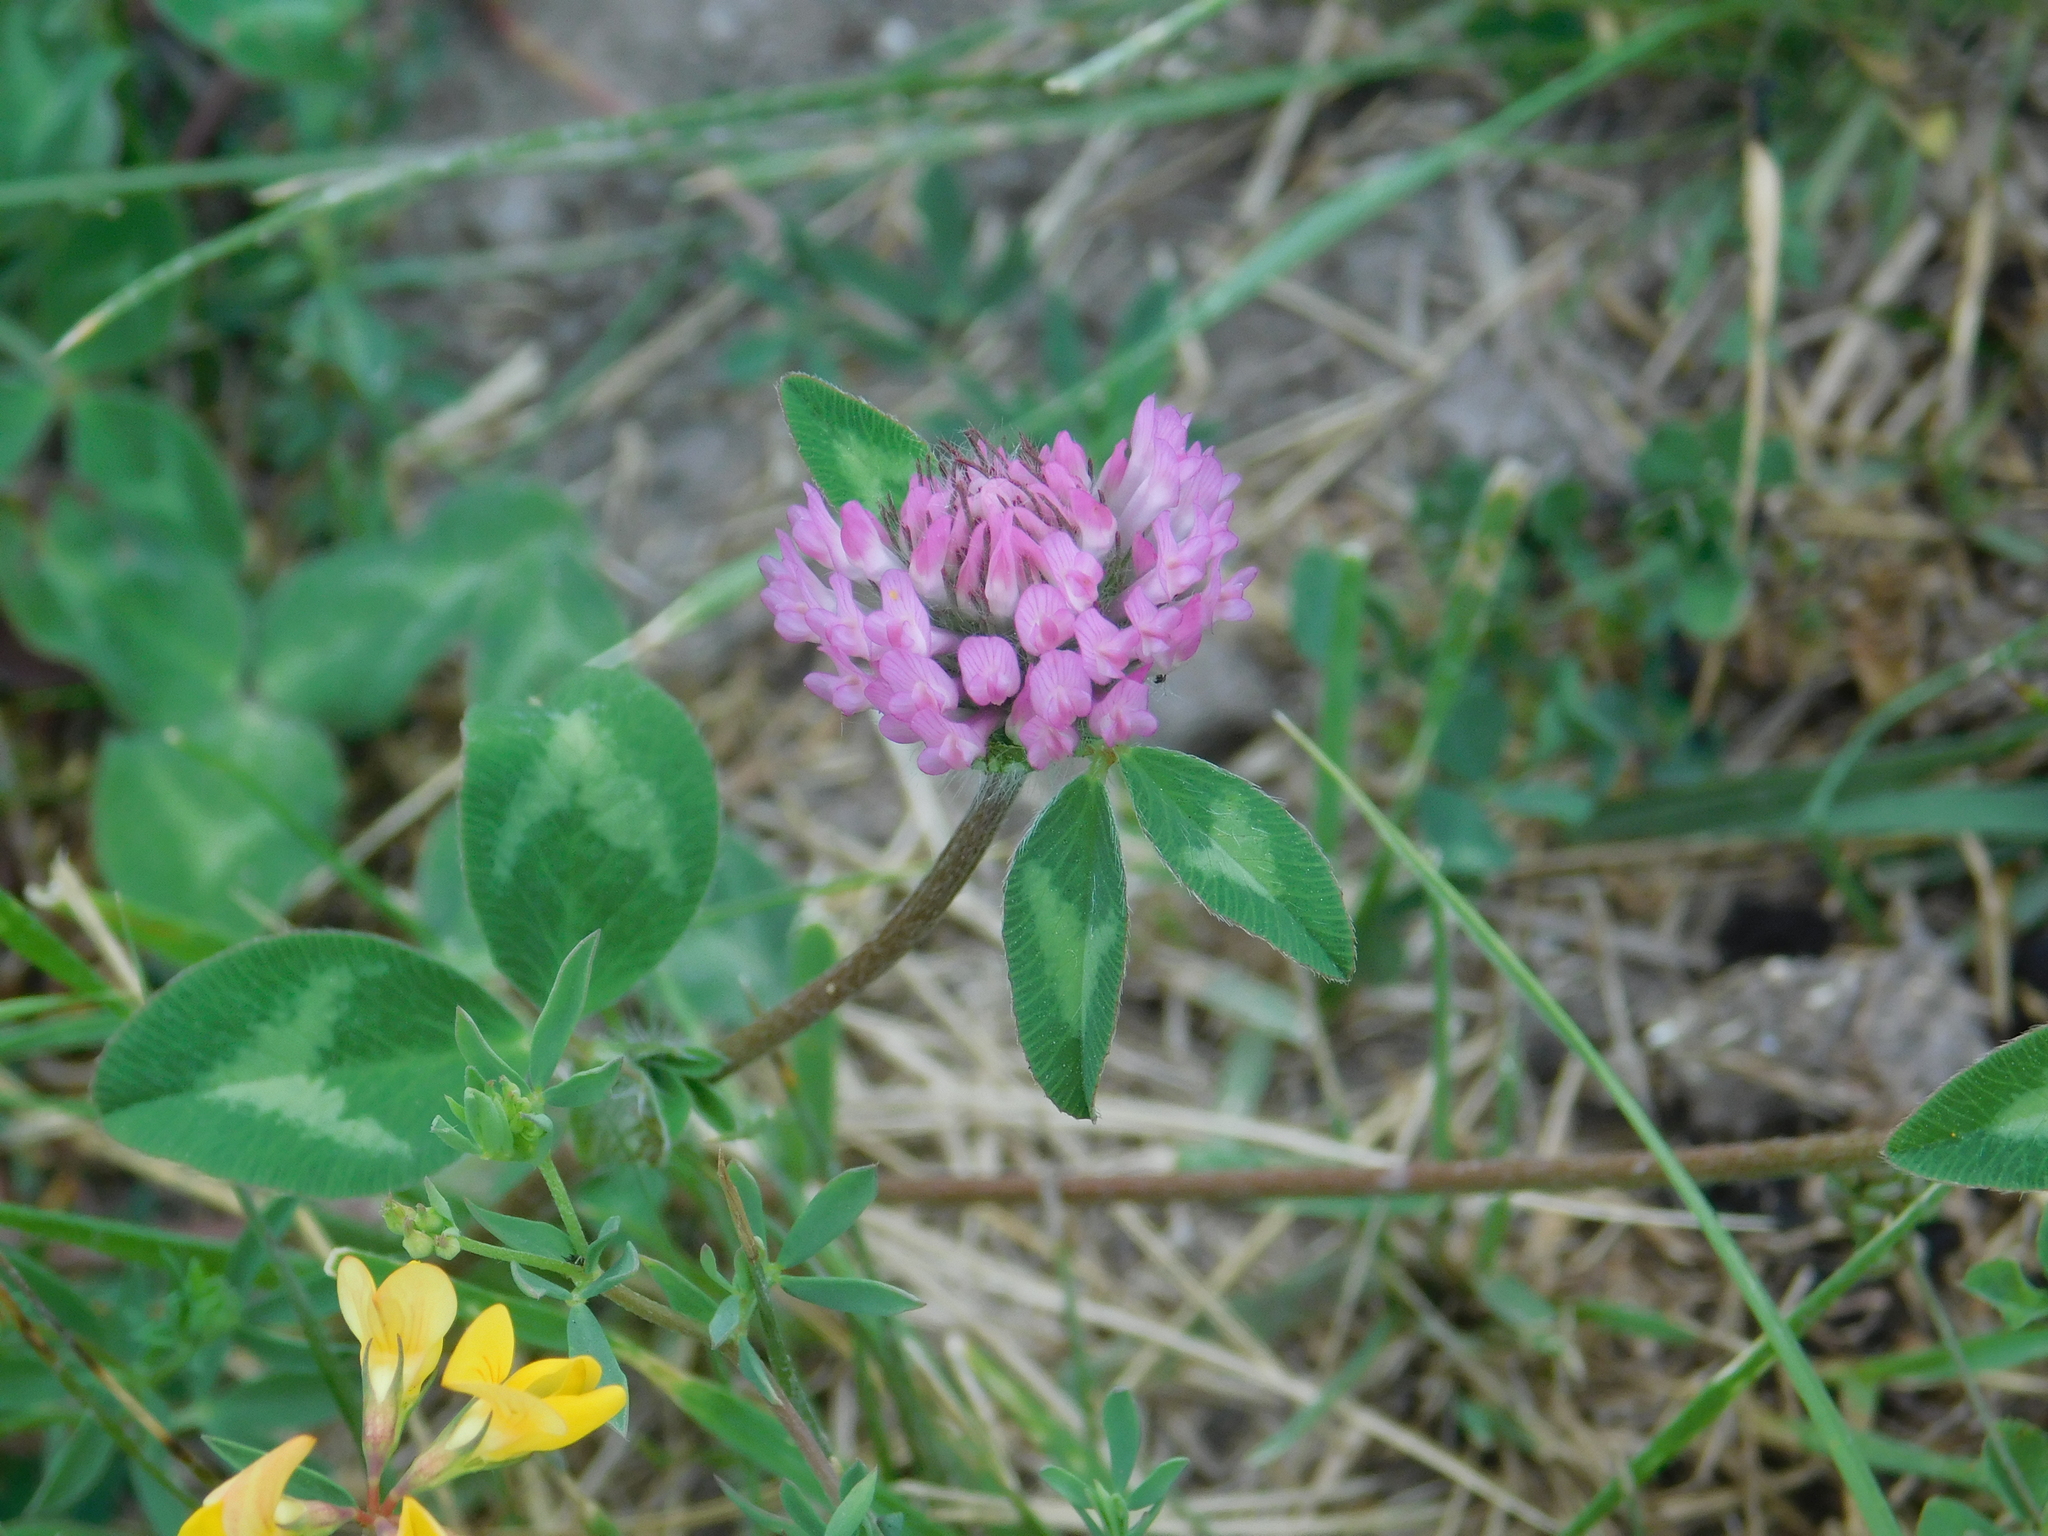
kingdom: Plantae
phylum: Tracheophyta
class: Magnoliopsida
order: Fabales
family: Fabaceae
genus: Trifolium
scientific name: Trifolium pratense
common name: Red clover
